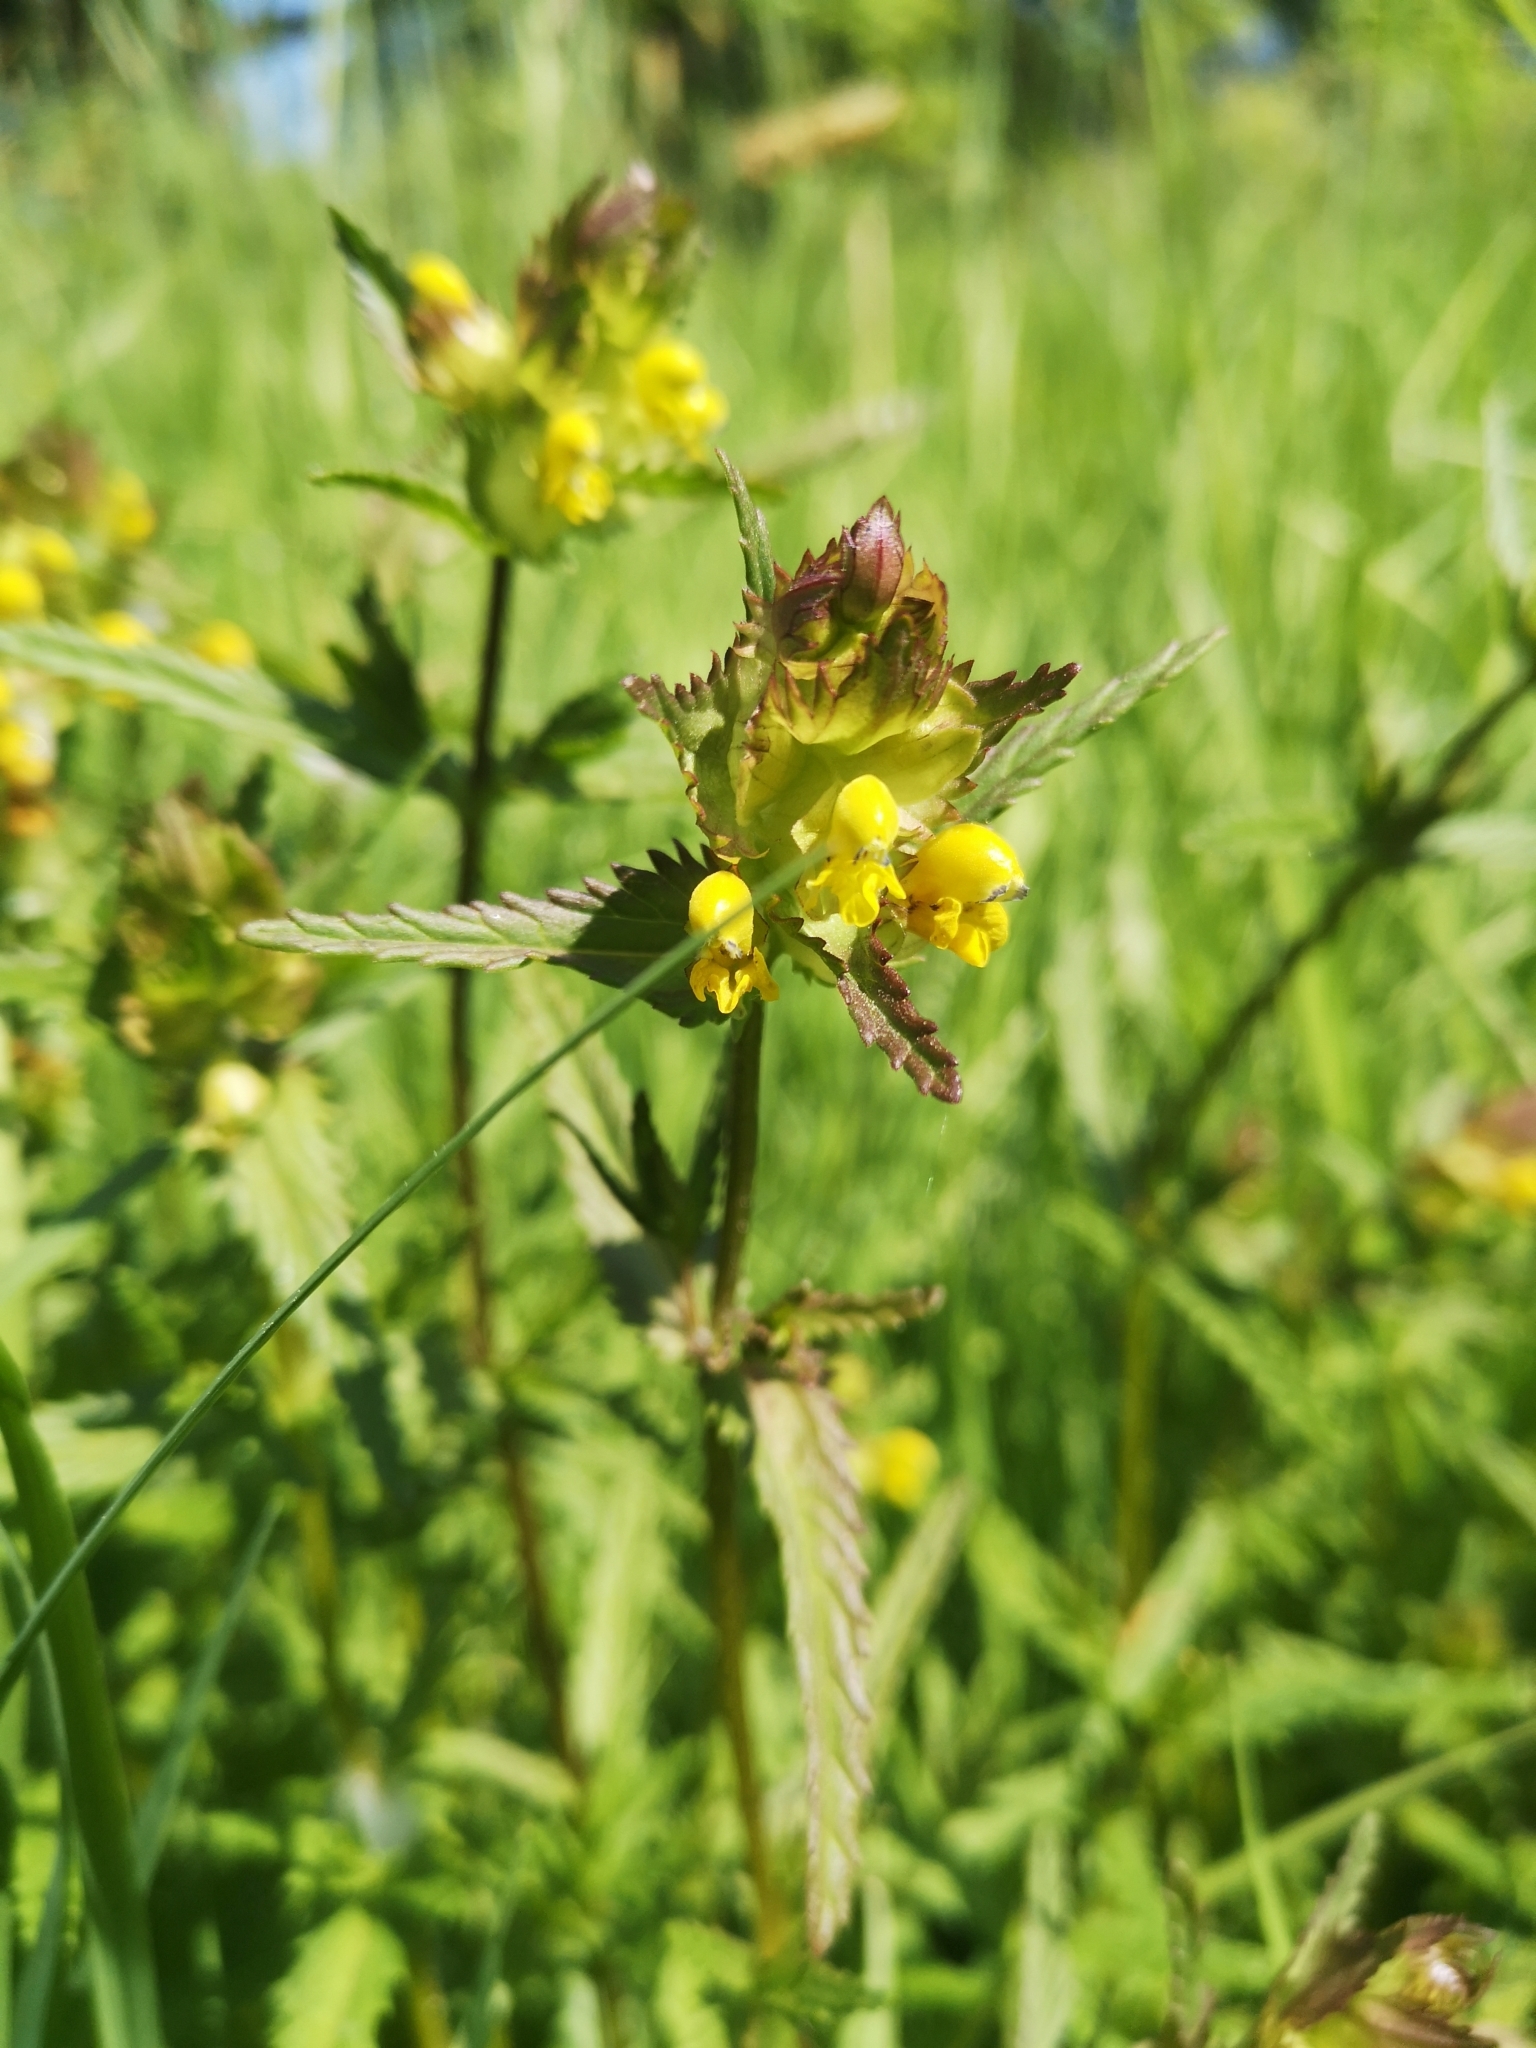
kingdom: Plantae
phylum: Tracheophyta
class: Magnoliopsida
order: Lamiales
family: Orobanchaceae
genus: Rhinanthus
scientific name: Rhinanthus minor
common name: Yellow-rattle
